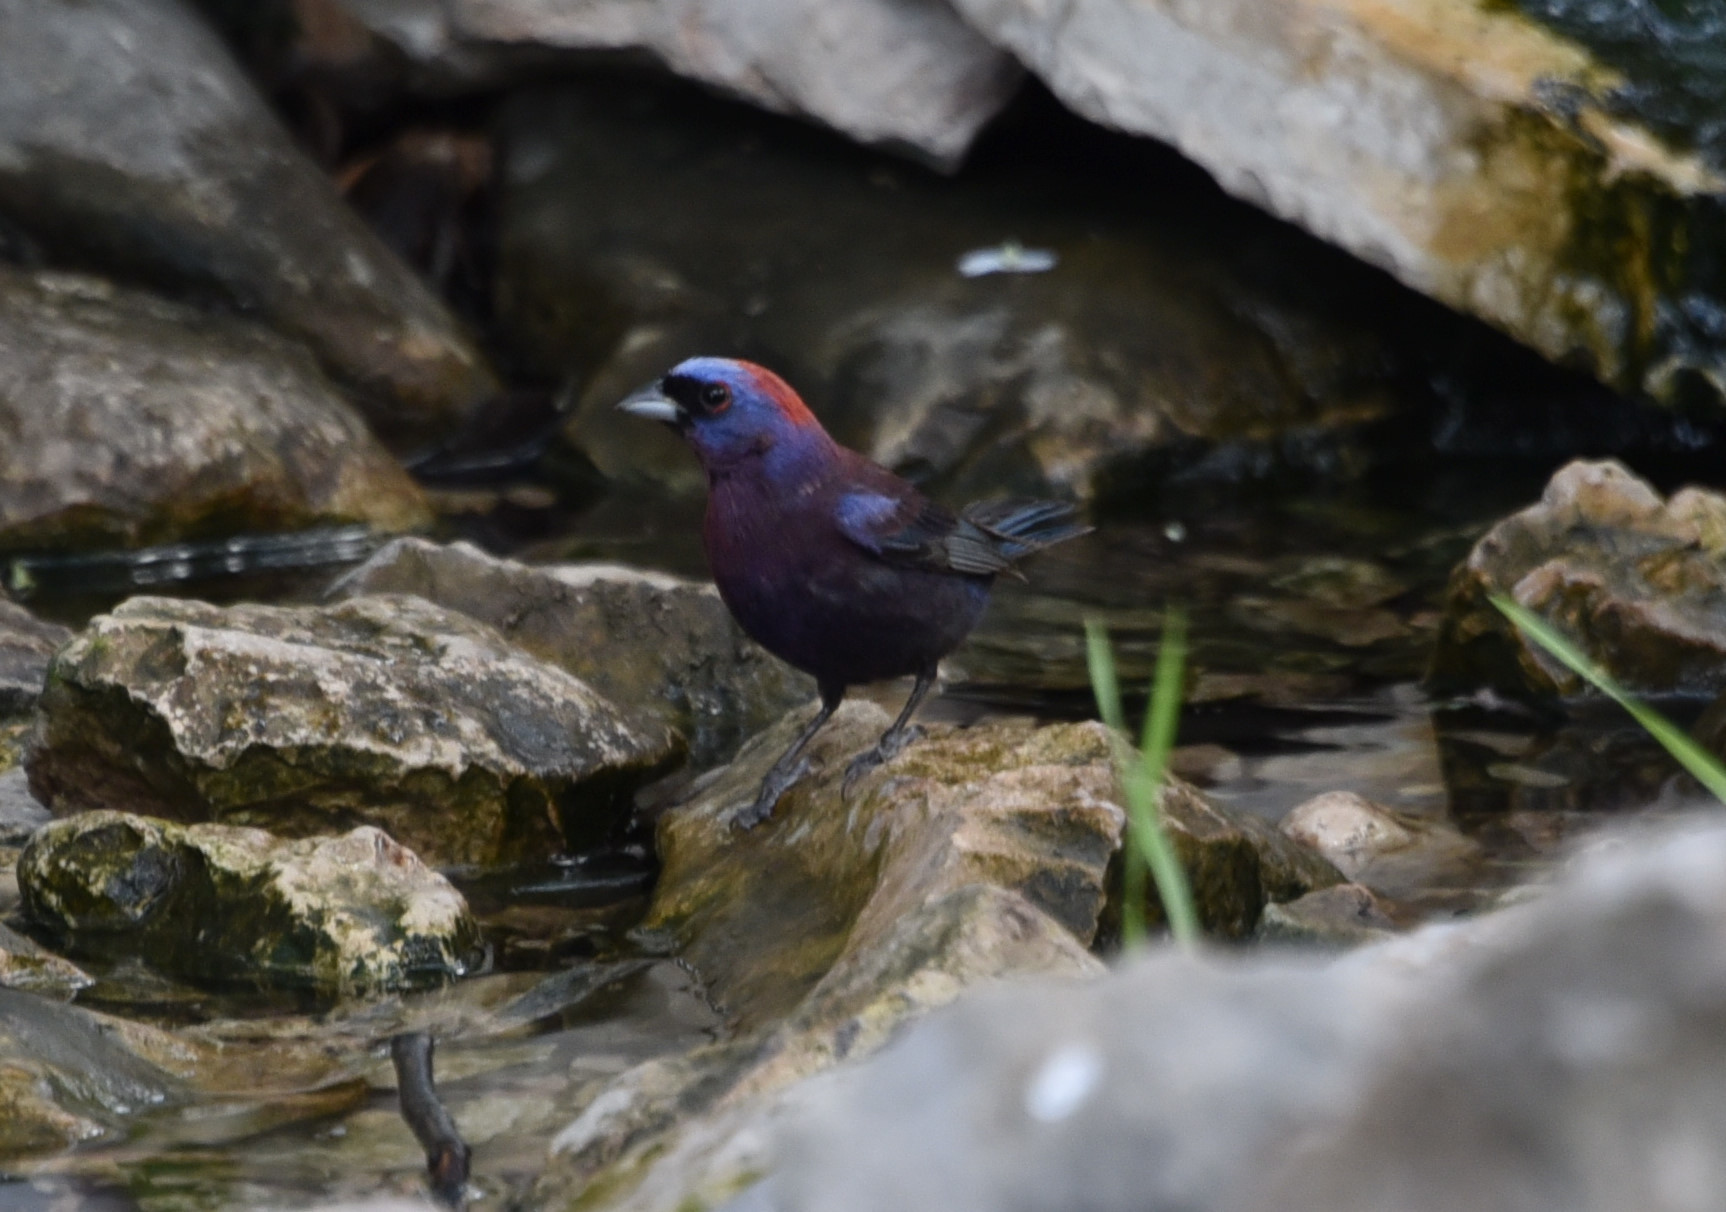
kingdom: Animalia
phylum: Chordata
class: Aves
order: Passeriformes
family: Cardinalidae
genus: Passerina
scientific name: Passerina versicolor
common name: Varied bunting
